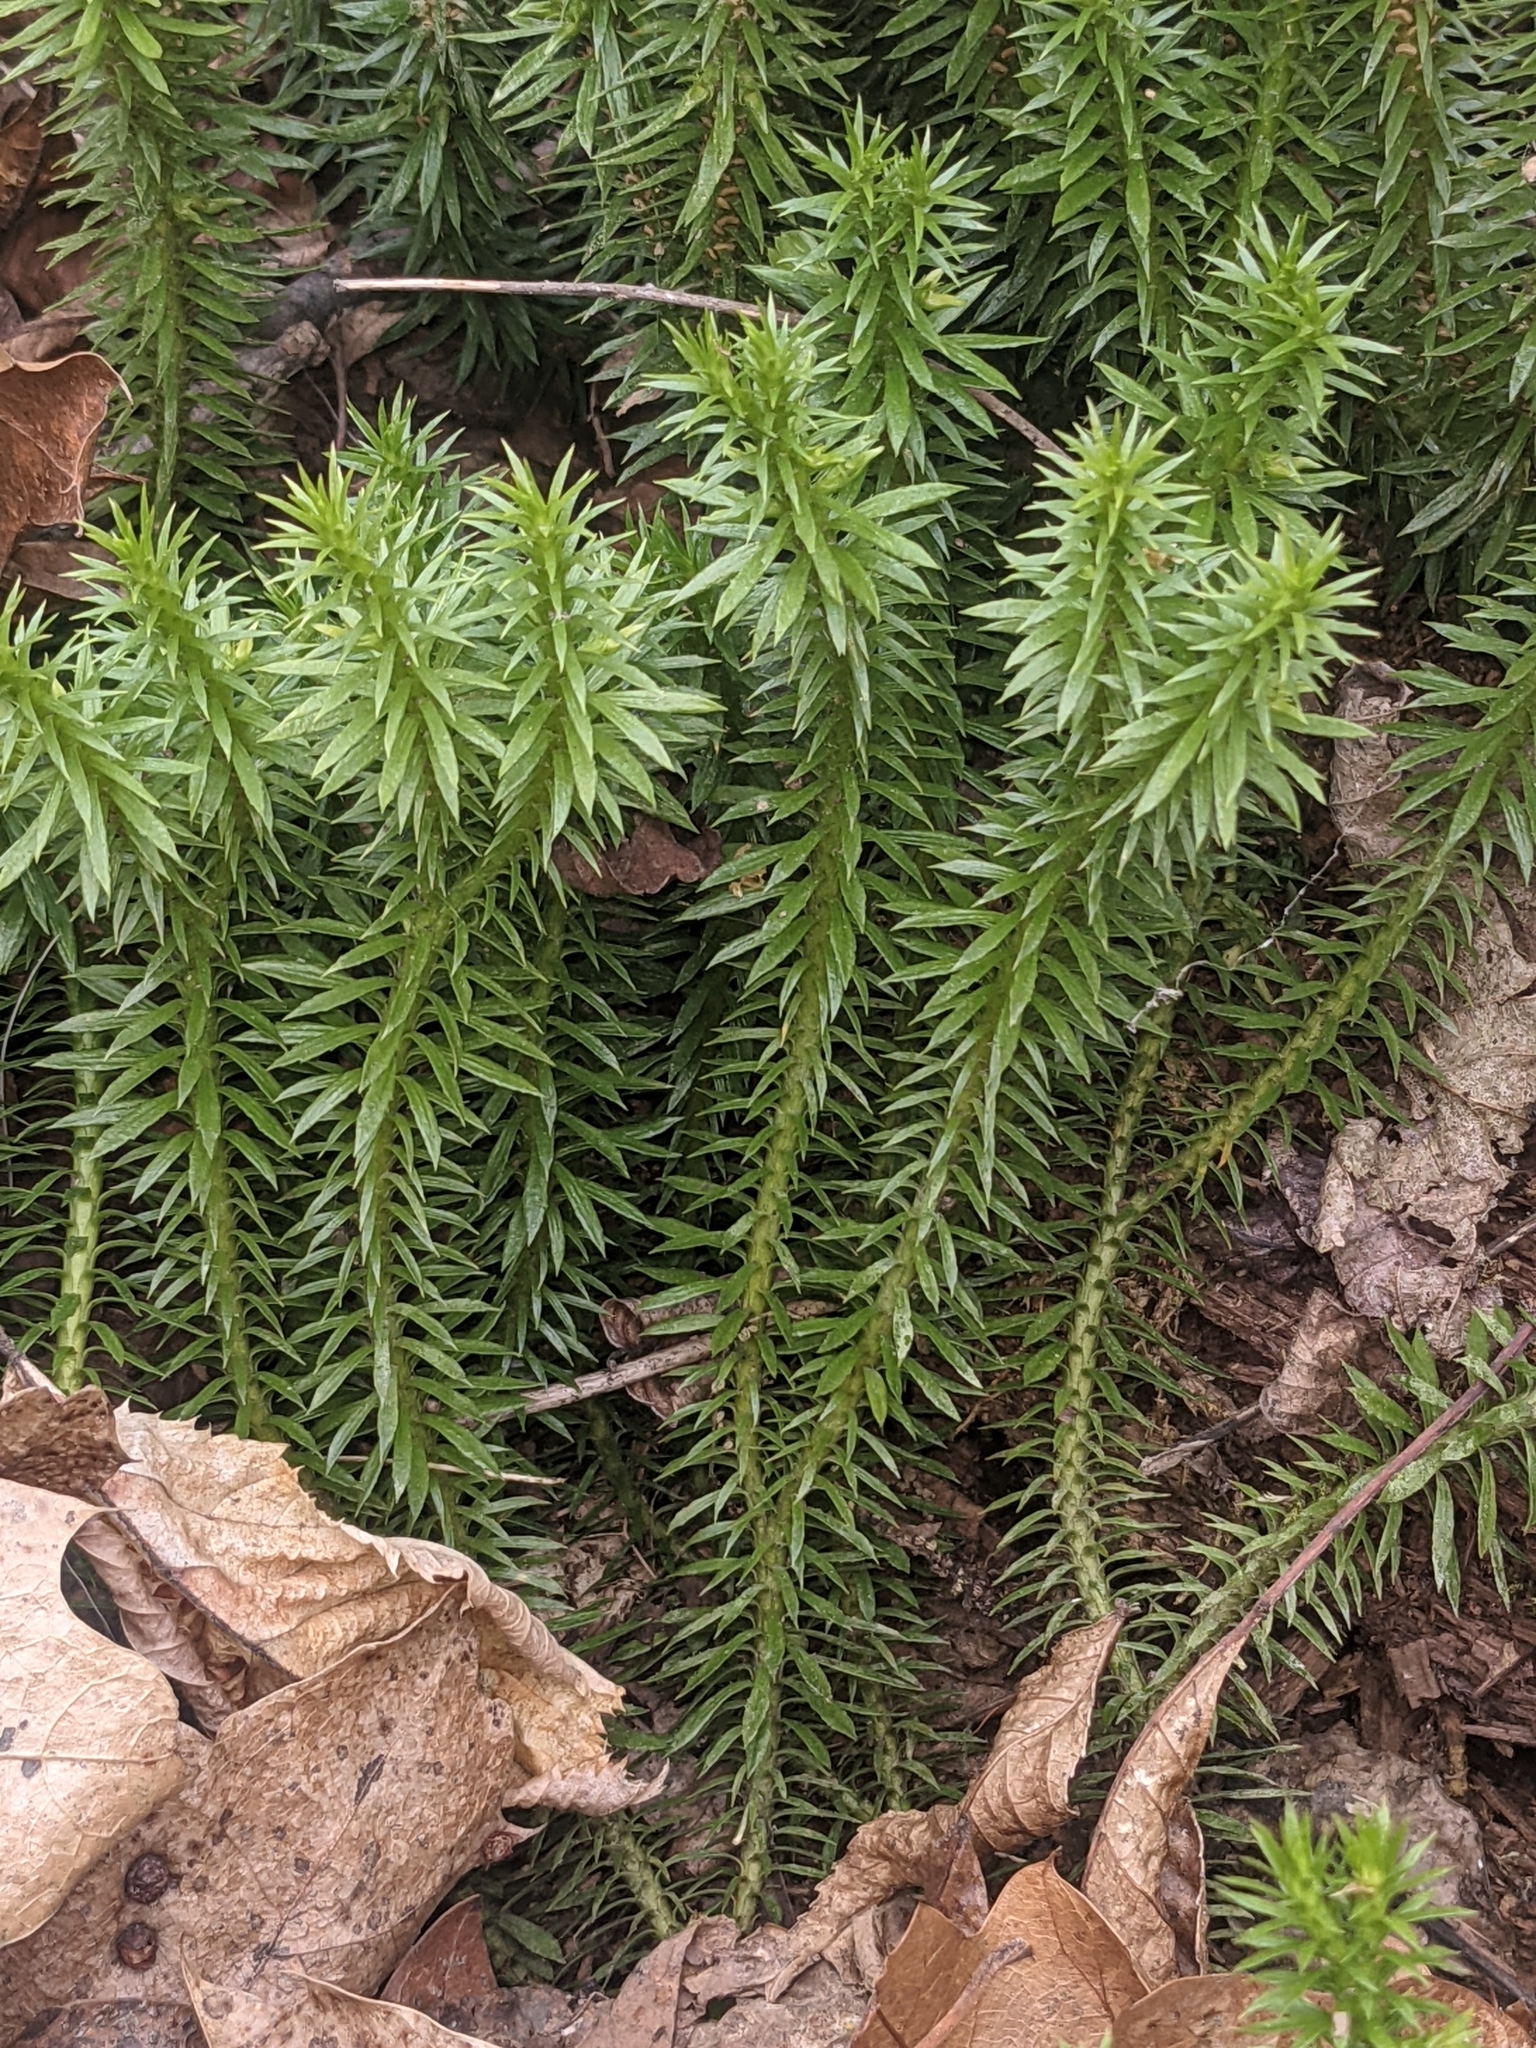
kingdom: Plantae
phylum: Tracheophyta
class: Lycopodiopsida
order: Lycopodiales
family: Lycopodiaceae
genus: Huperzia
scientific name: Huperzia lucidula
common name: Shining clubmoss
